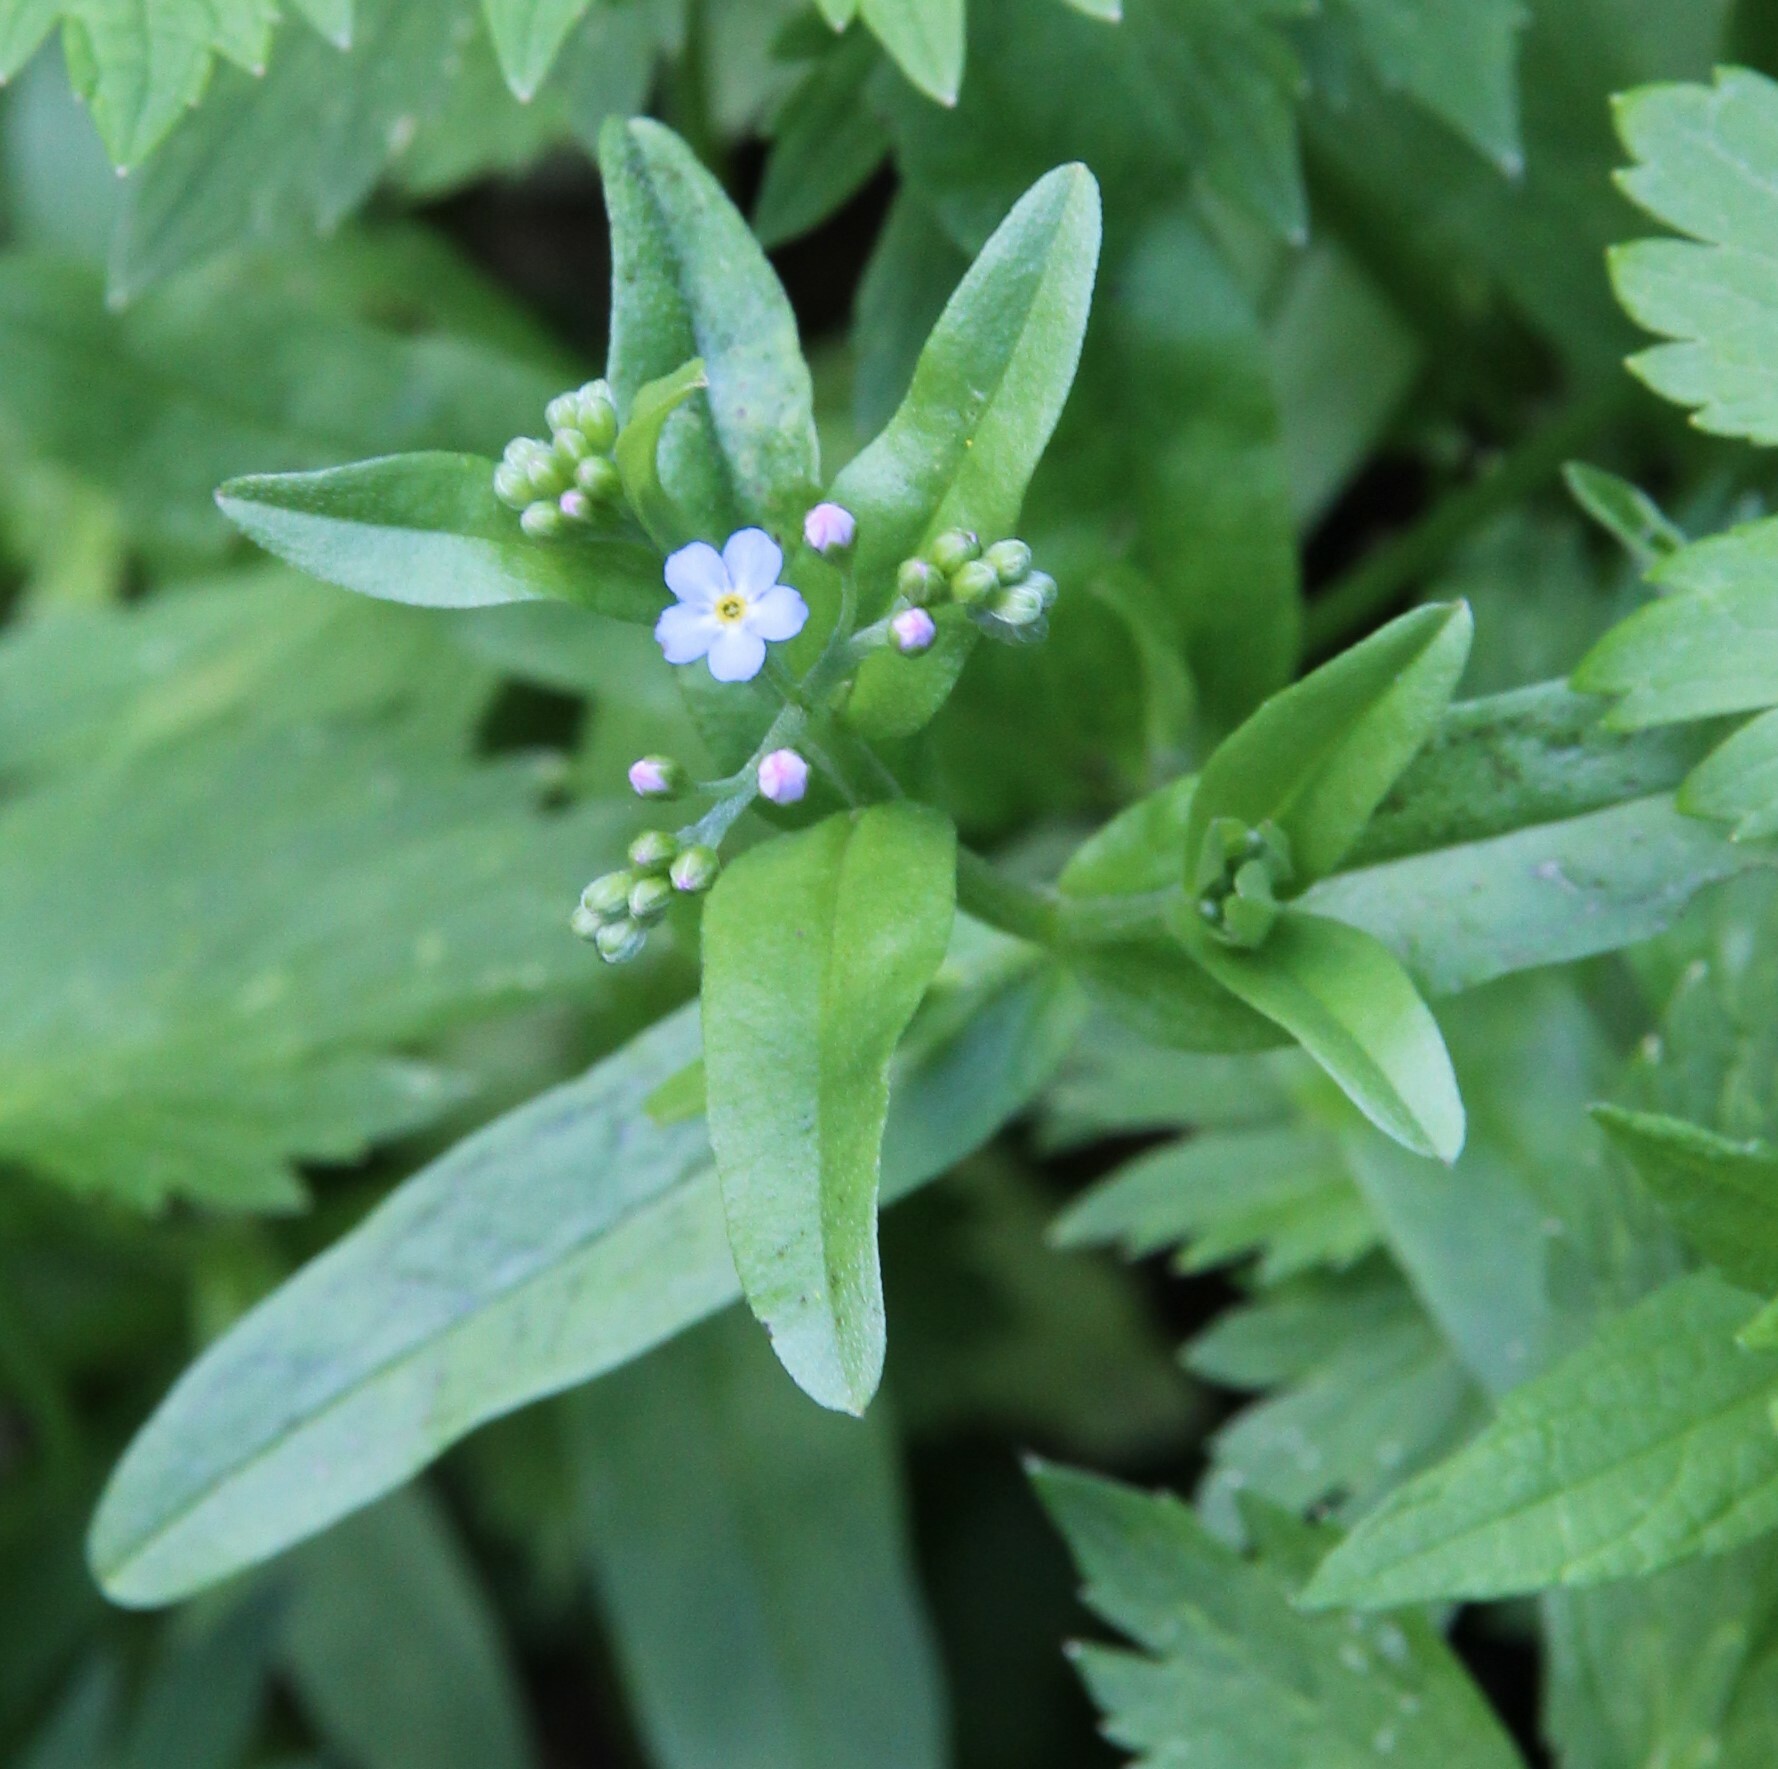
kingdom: Plantae
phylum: Tracheophyta
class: Magnoliopsida
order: Boraginales
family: Boraginaceae
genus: Myosotis
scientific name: Myosotis scorpioides
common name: Water forget-me-not
